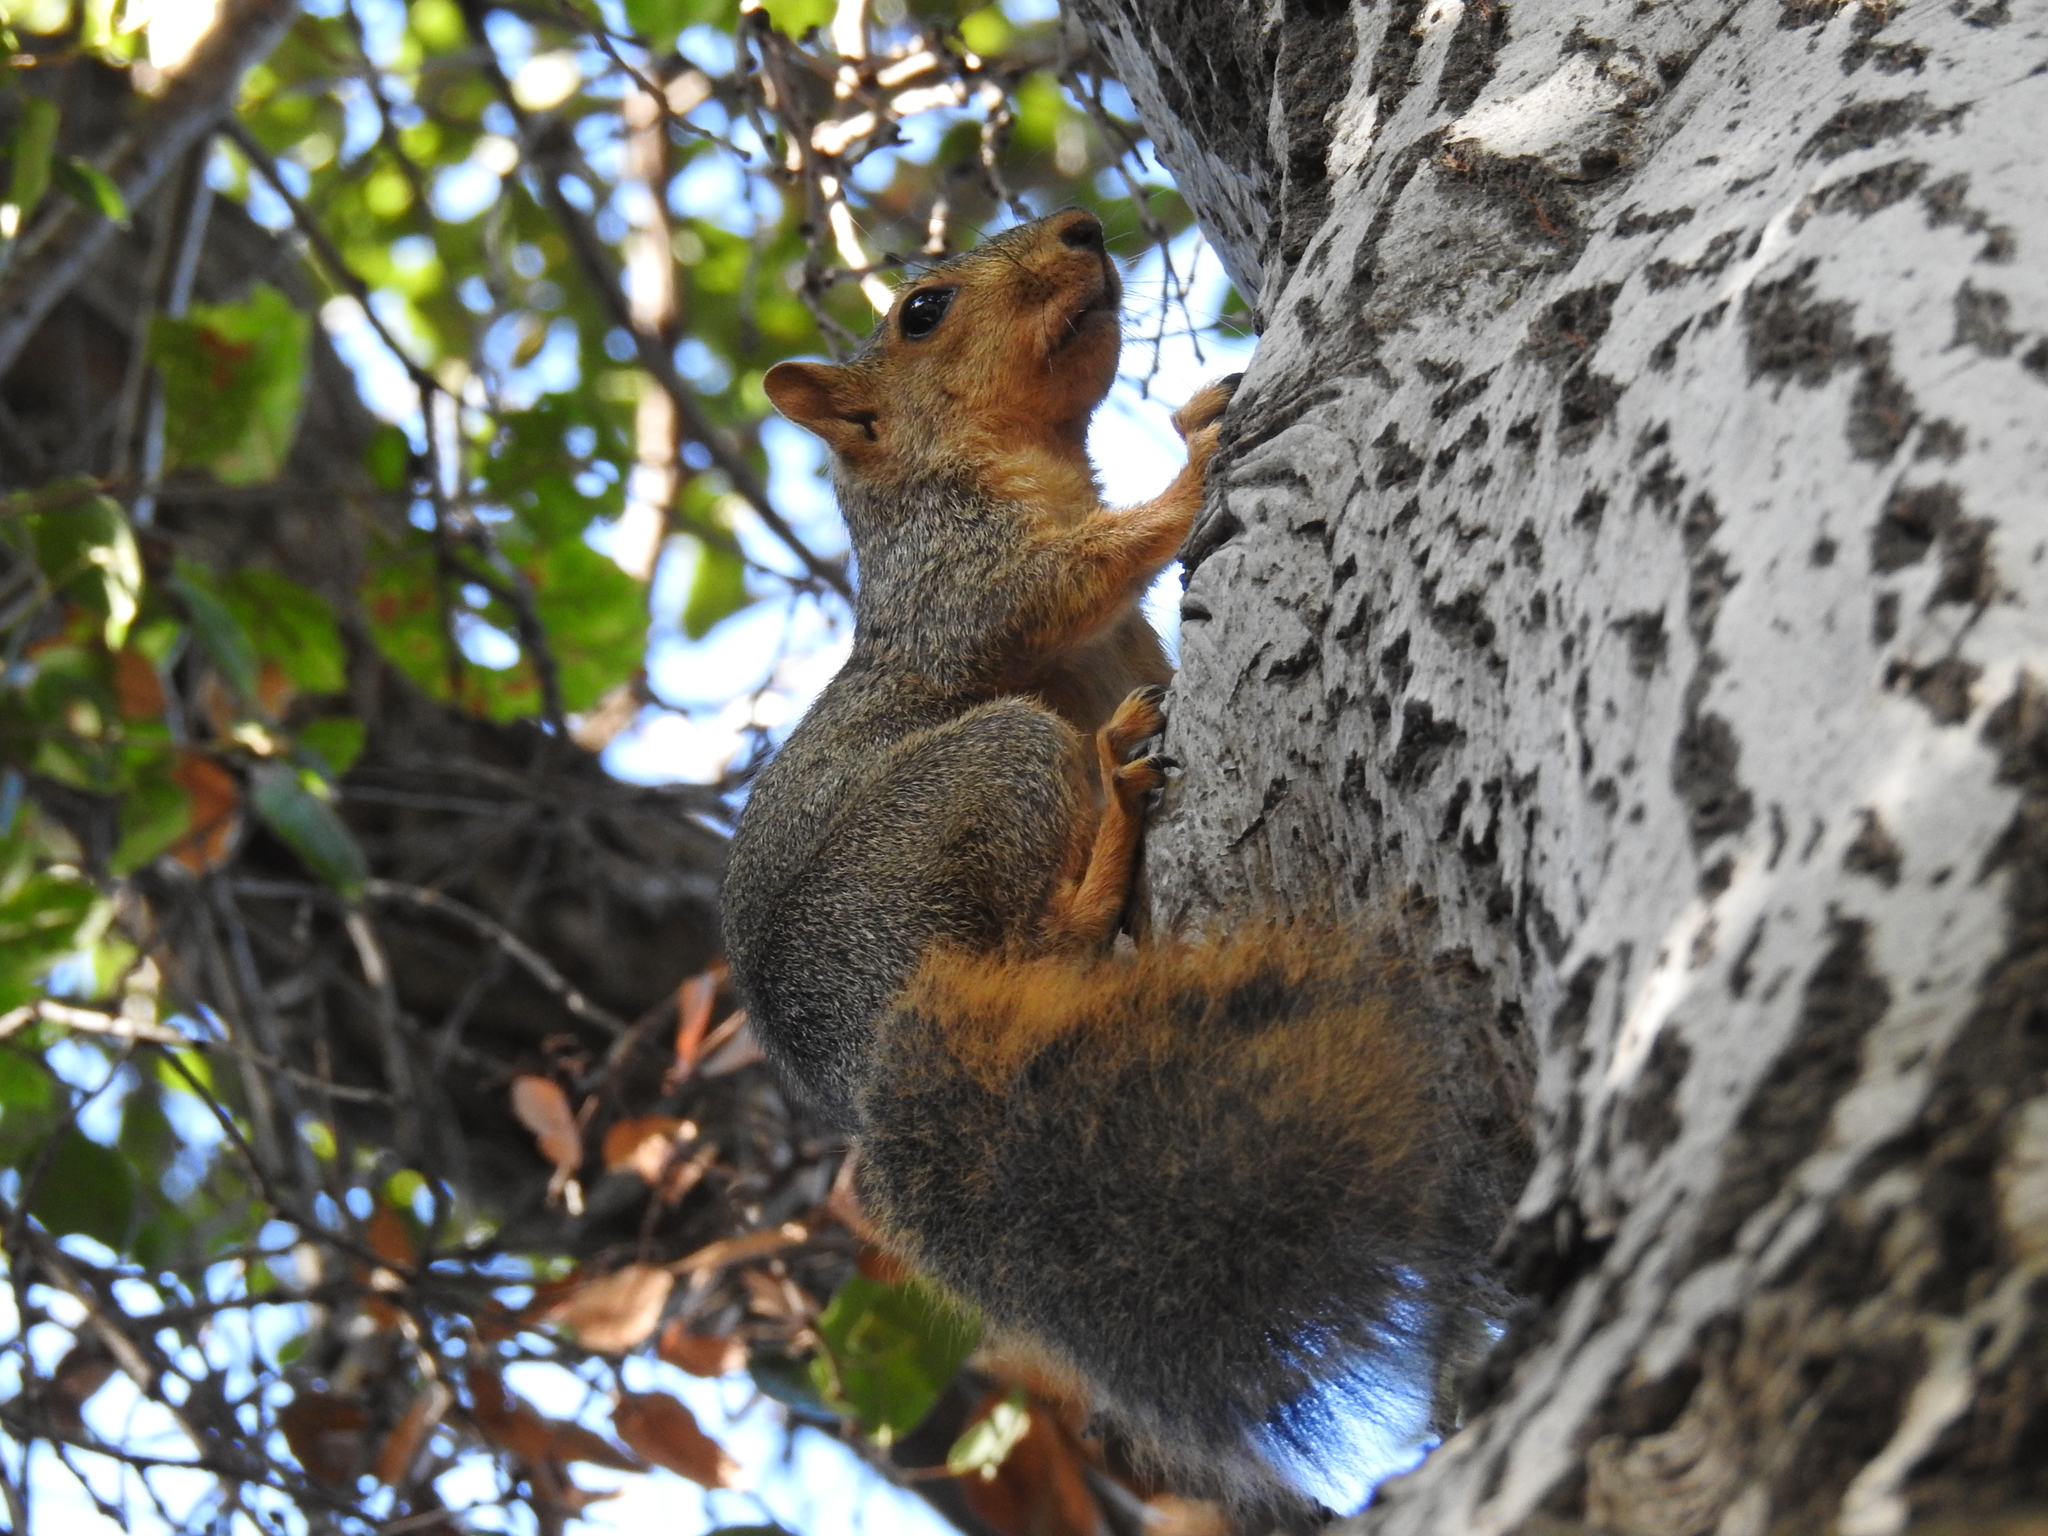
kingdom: Animalia
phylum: Chordata
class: Mammalia
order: Rodentia
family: Sciuridae
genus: Sciurus
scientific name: Sciurus niger
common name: Fox squirrel
